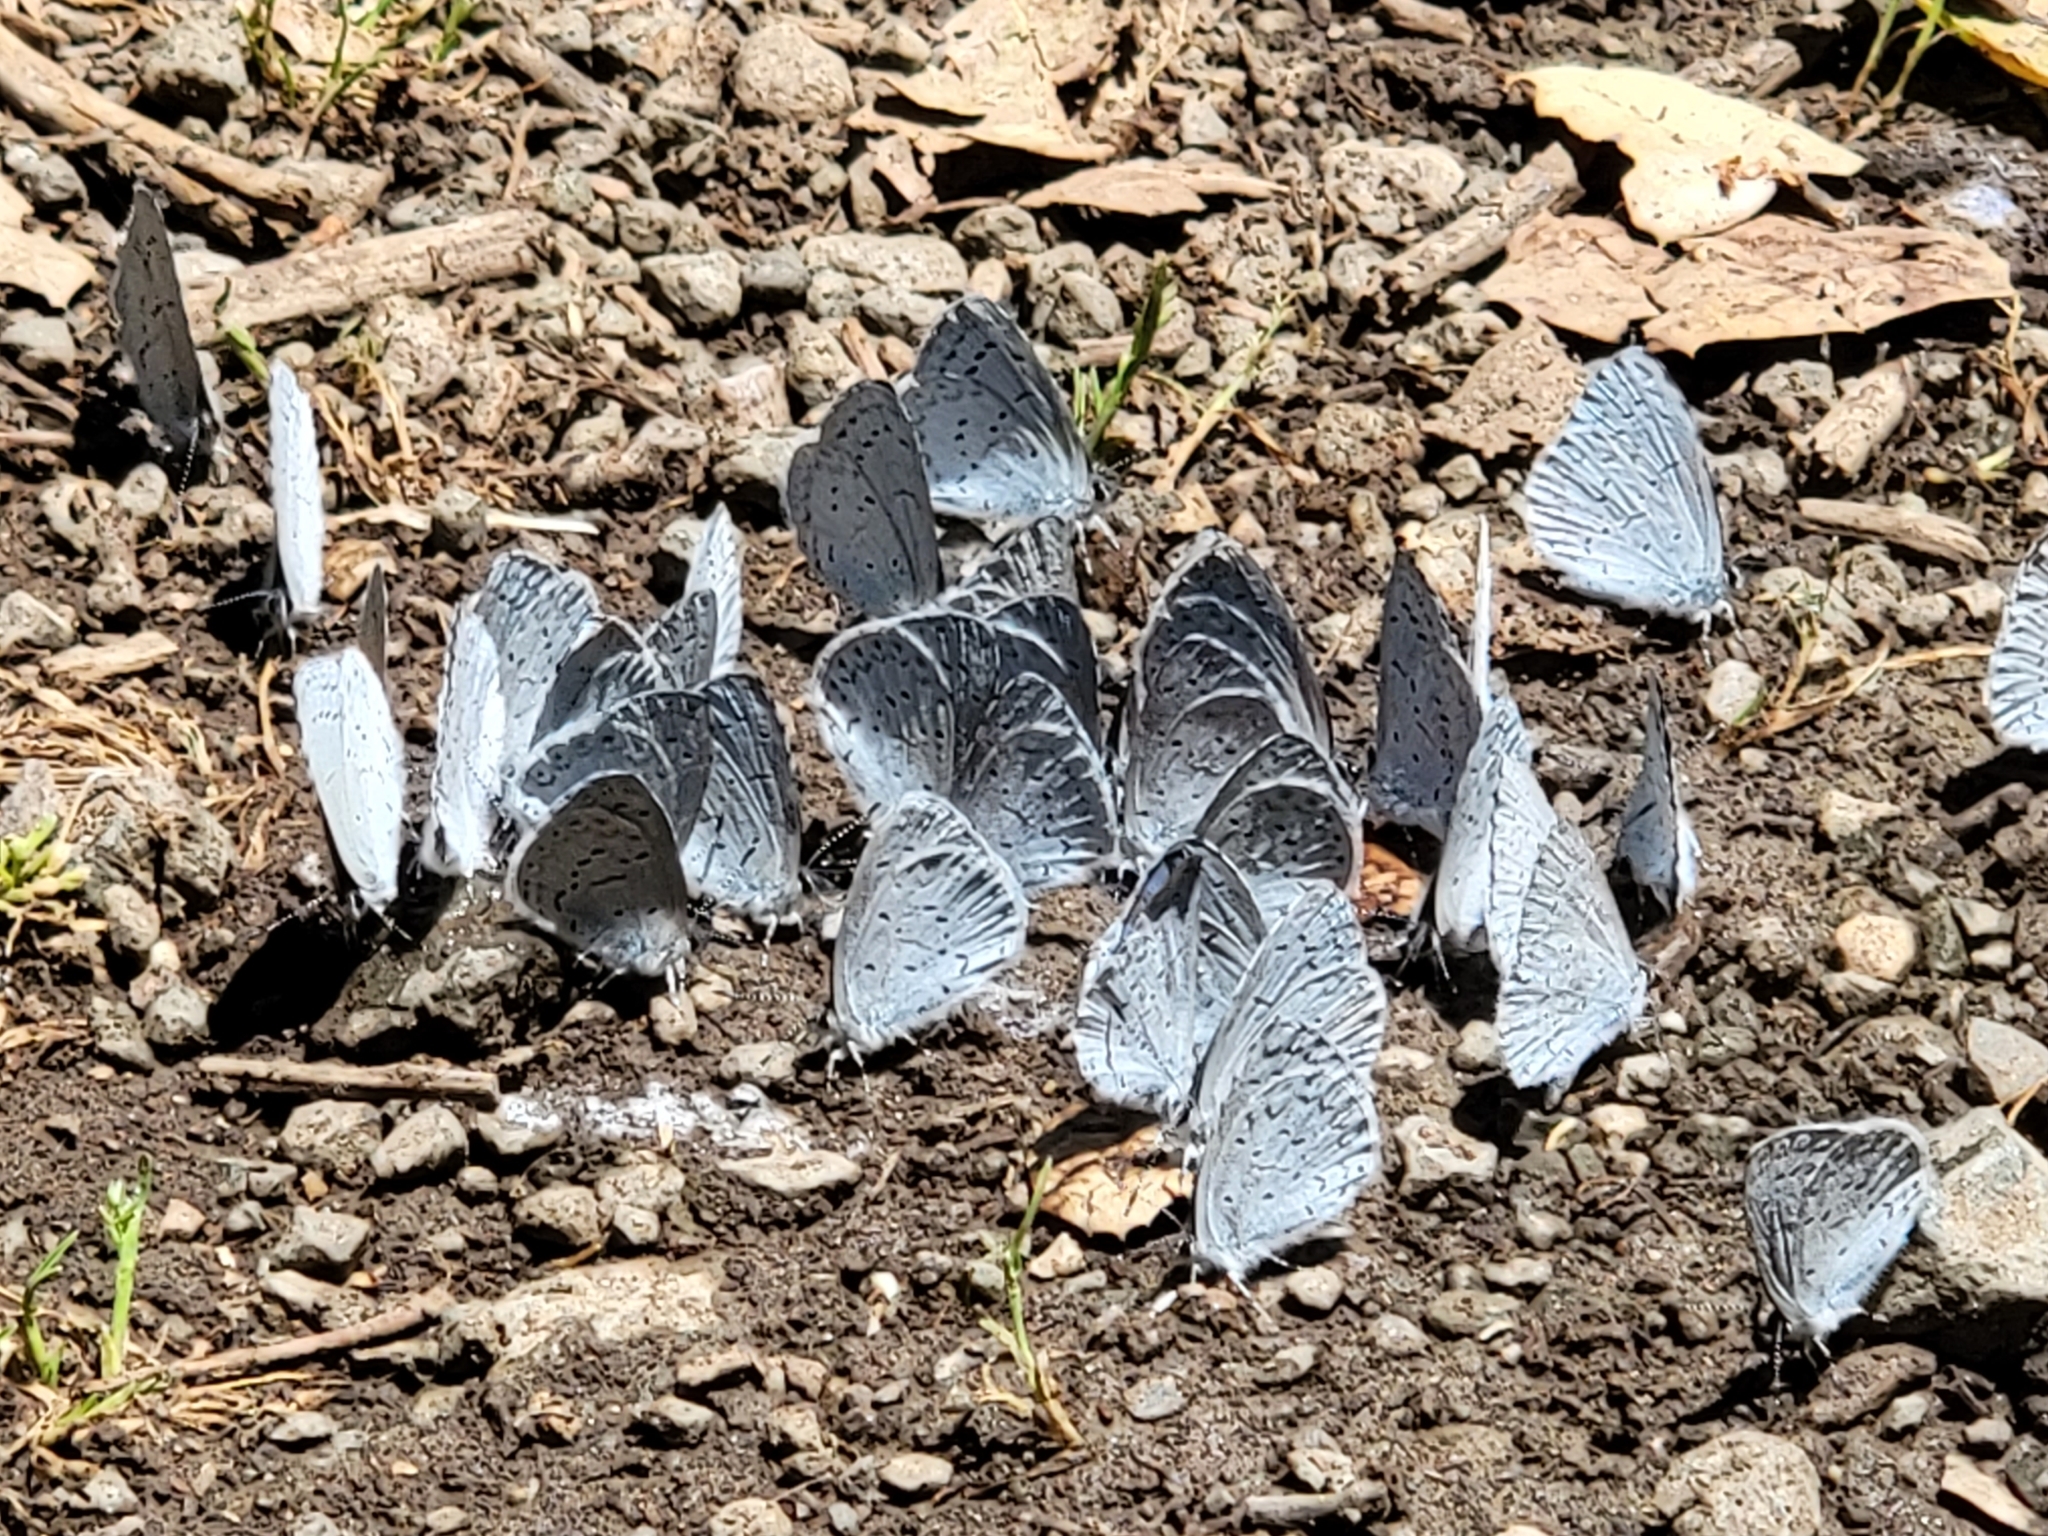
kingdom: Animalia
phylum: Arthropoda
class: Insecta
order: Lepidoptera
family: Lycaenidae
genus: Celastrina
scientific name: Celastrina ladon
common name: Spring azure
